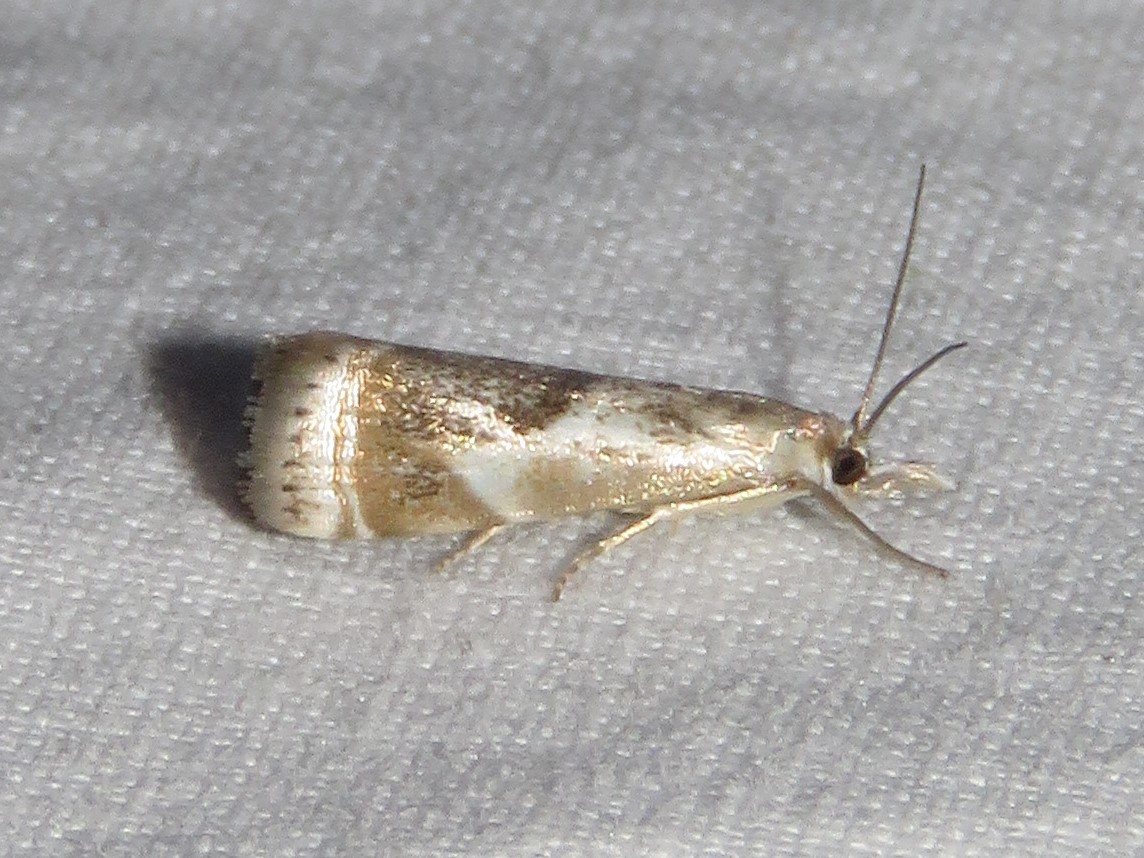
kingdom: Animalia
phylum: Arthropoda
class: Insecta
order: Lepidoptera
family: Crambidae
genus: Microcrambus
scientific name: Microcrambus elegans
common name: Elegant grass-veneer
